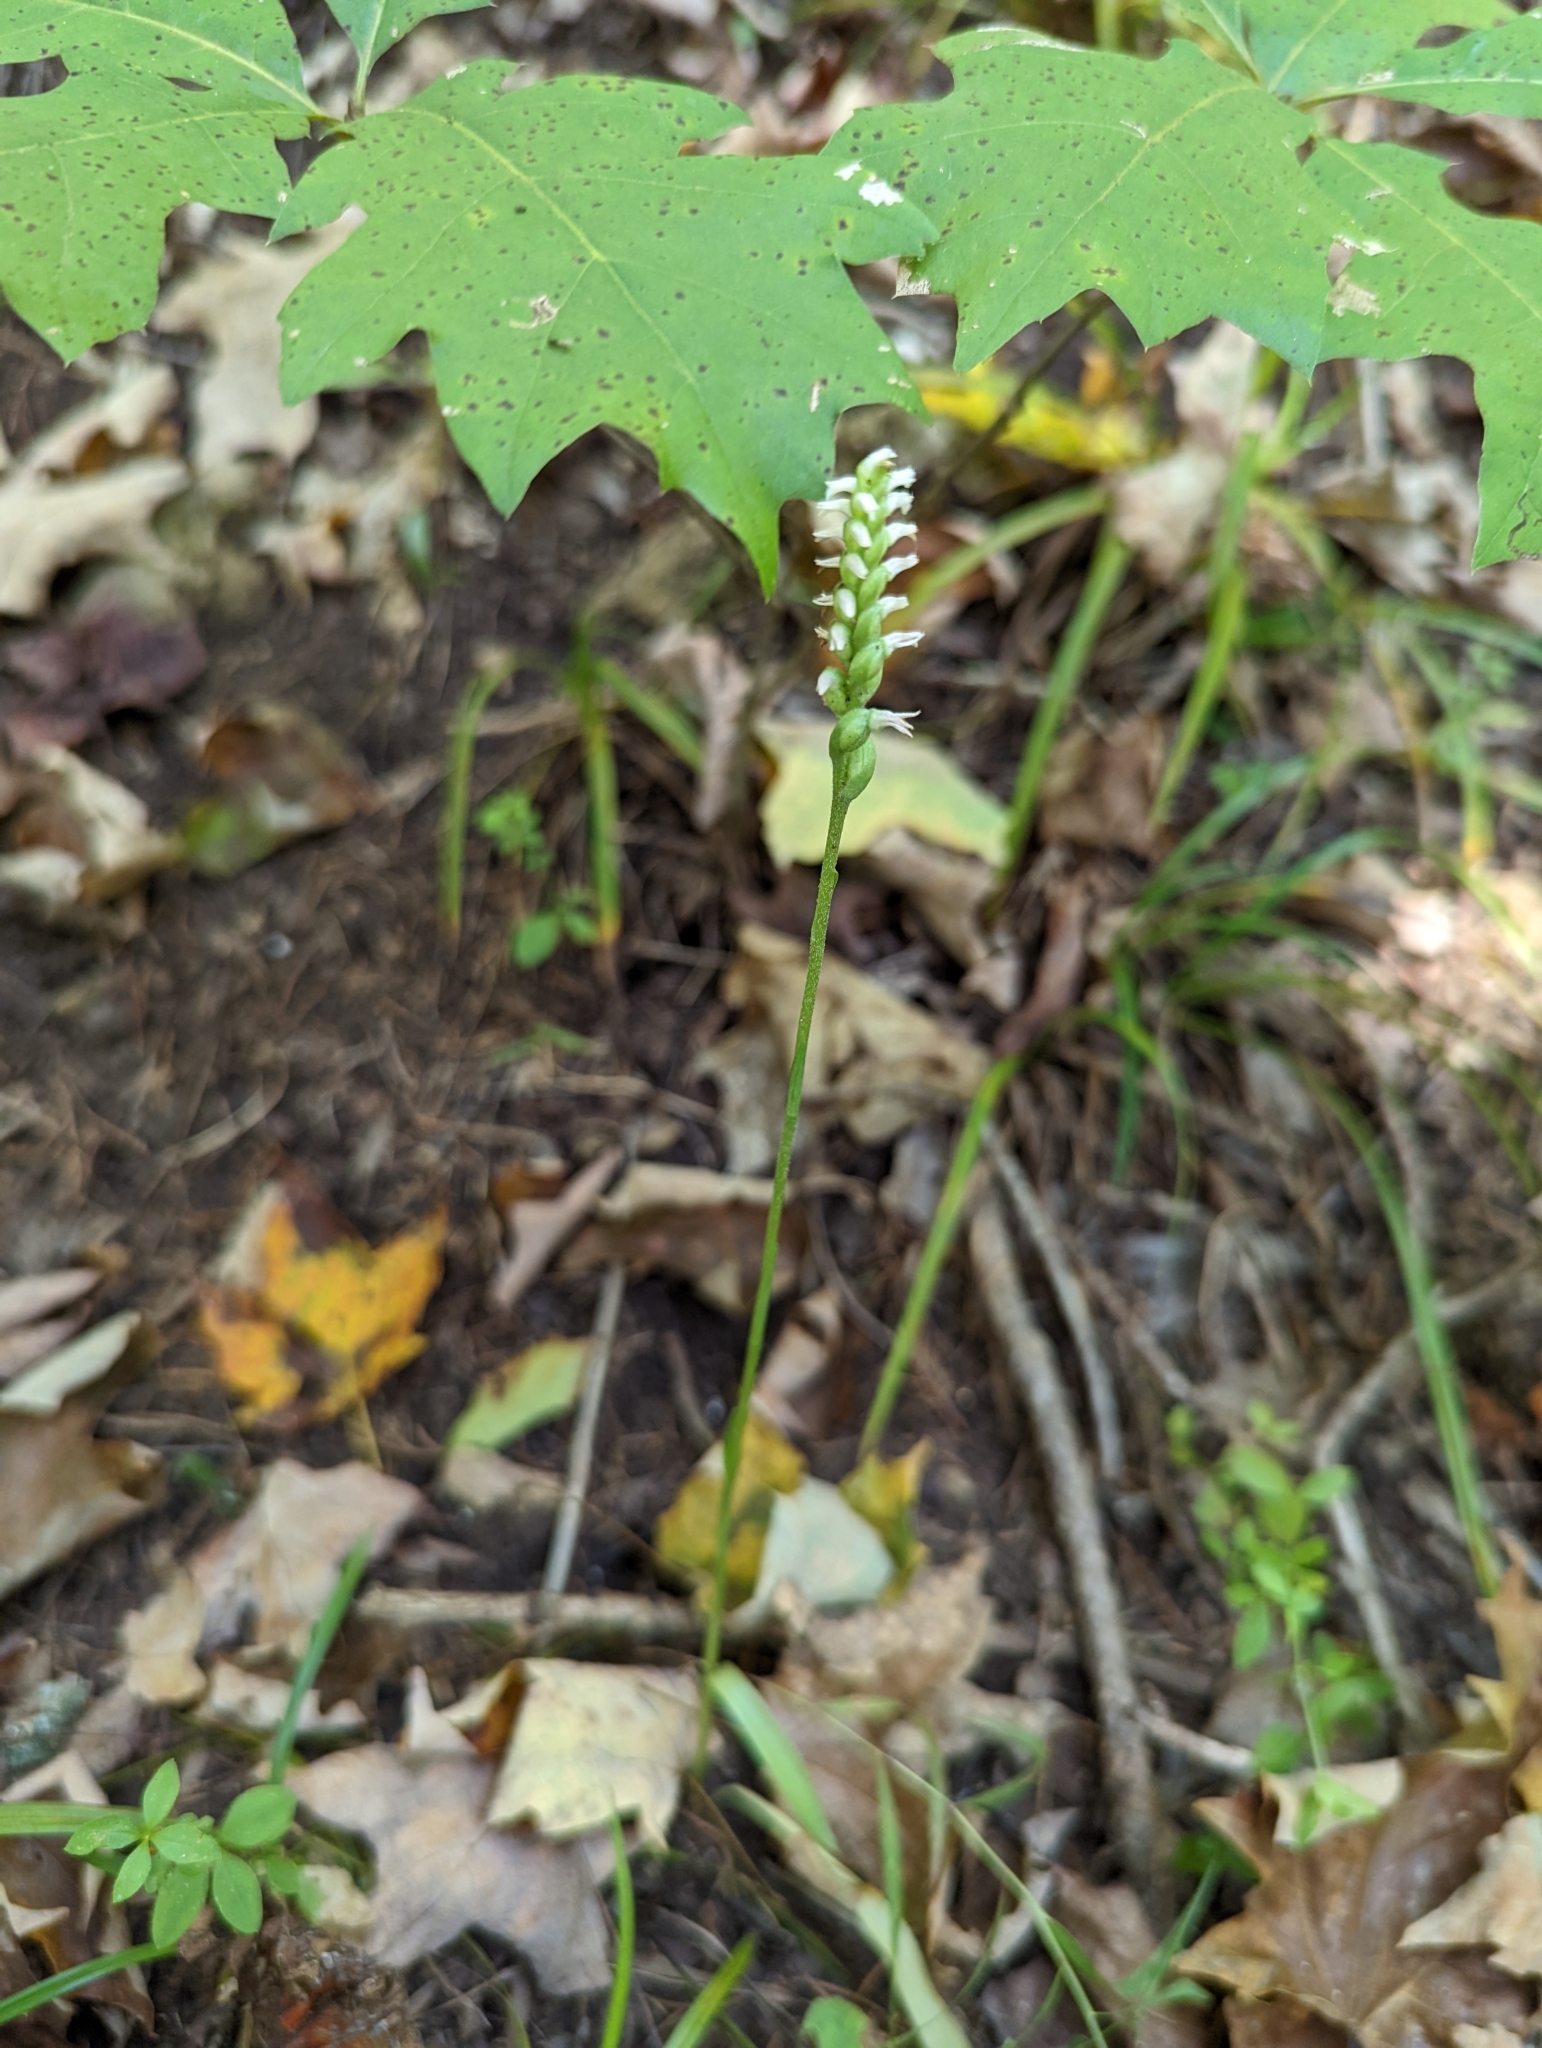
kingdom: Plantae
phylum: Tracheophyta
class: Liliopsida
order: Asparagales
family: Orchidaceae
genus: Spiranthes
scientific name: Spiranthes ovalis
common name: October ladies'-tresses
